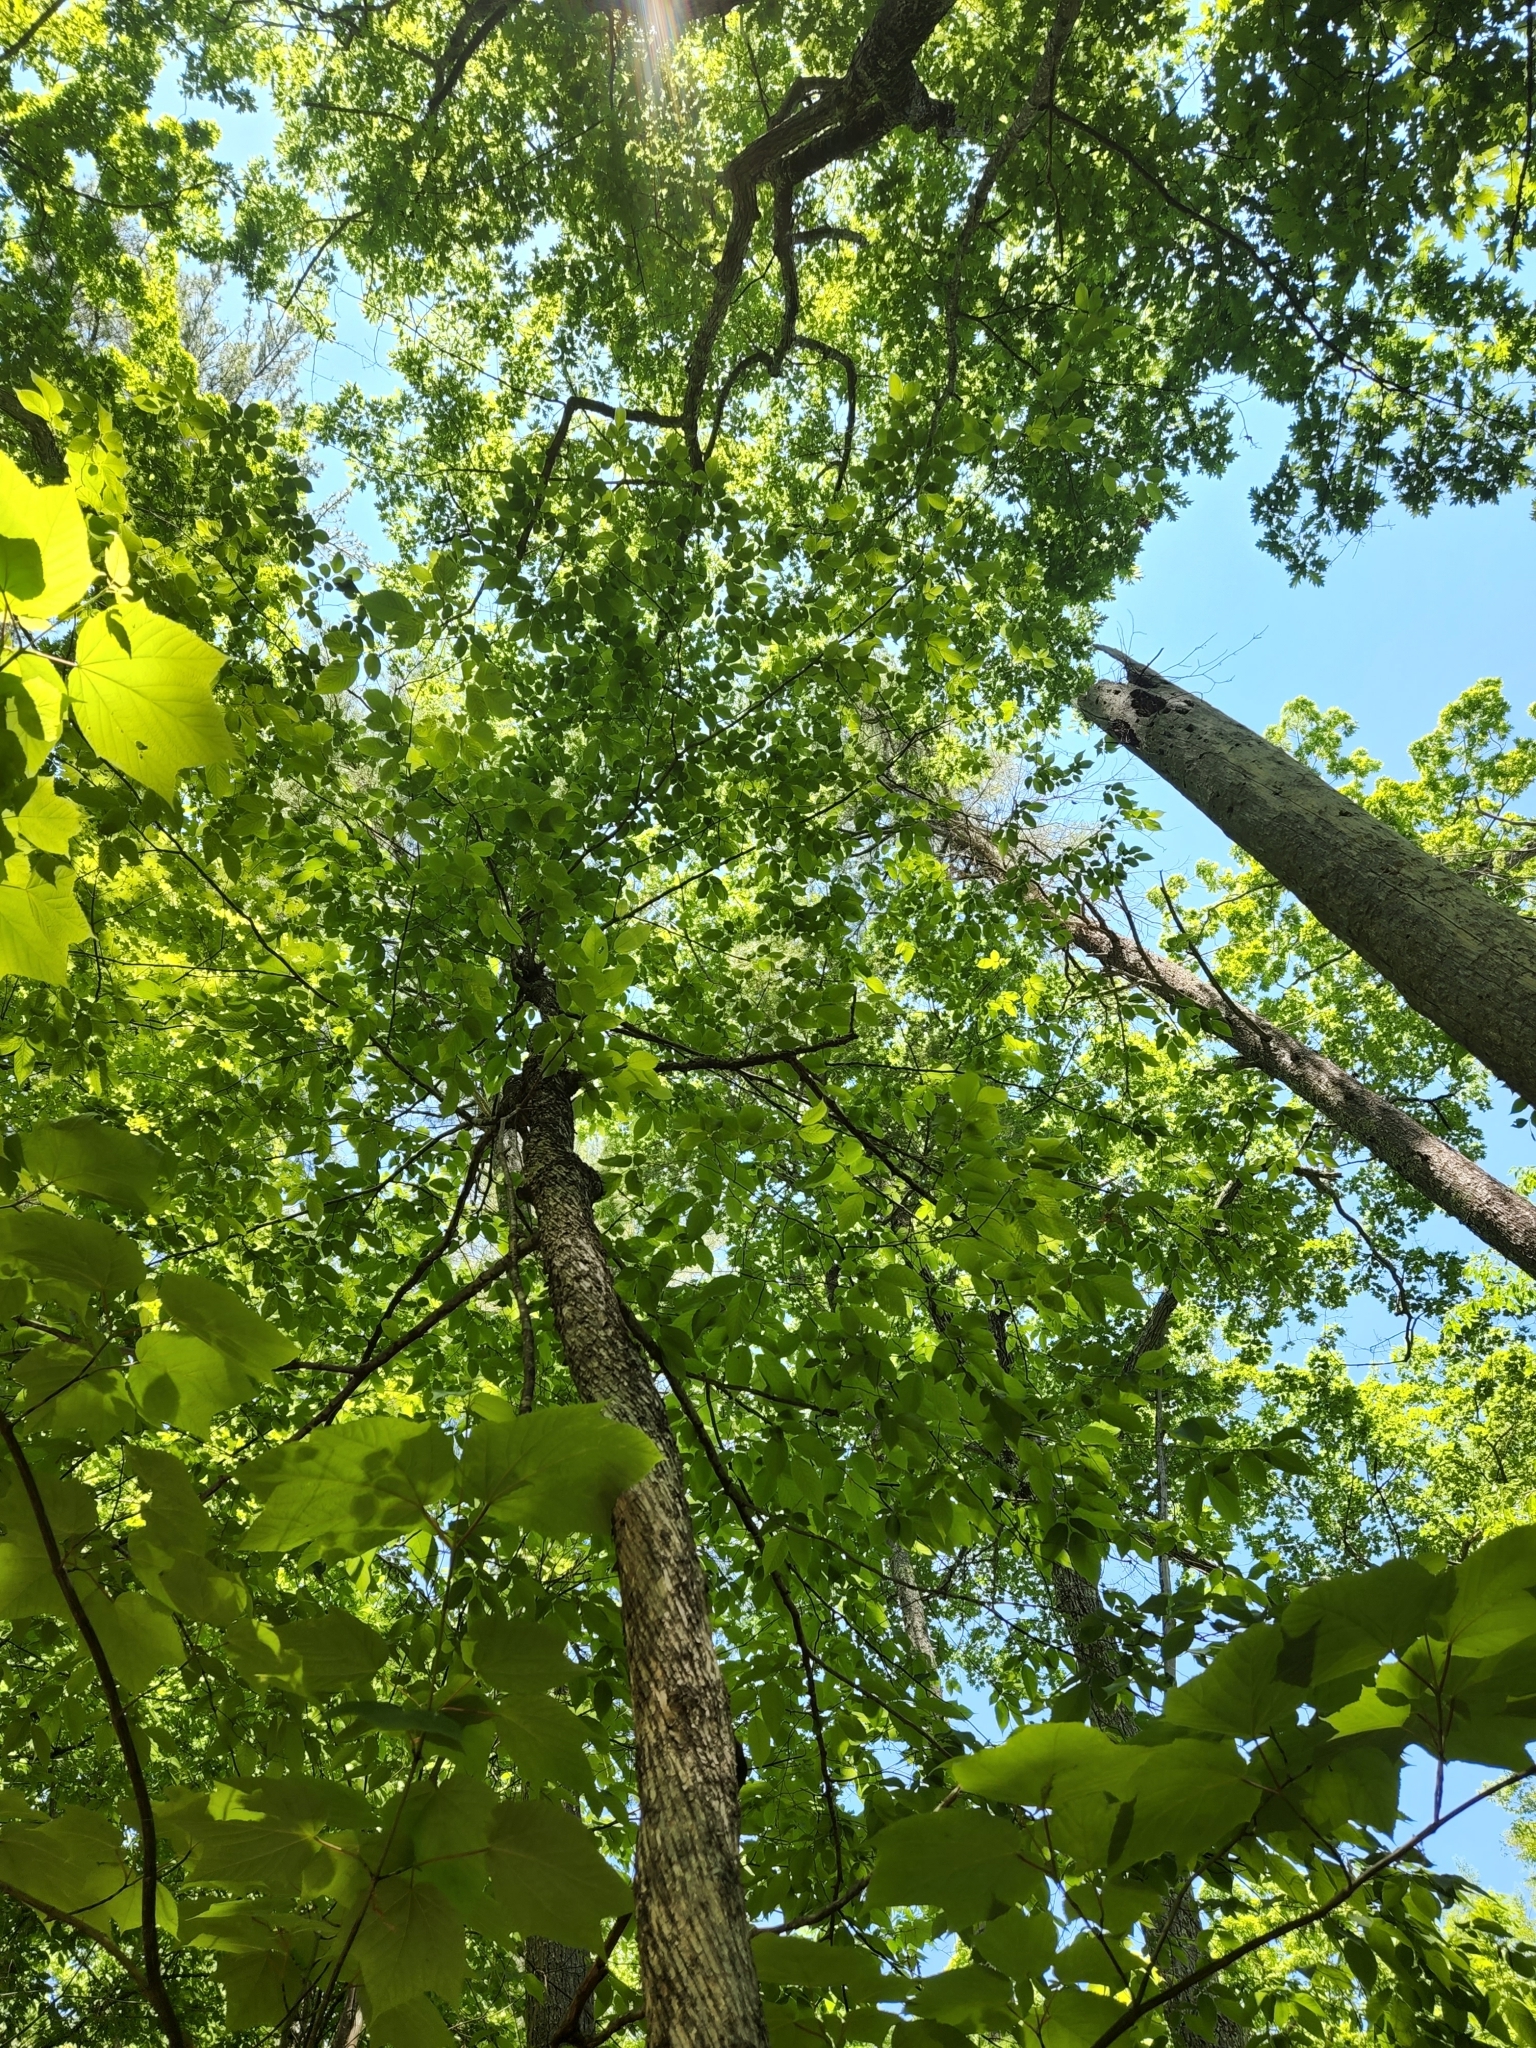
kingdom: Plantae
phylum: Tracheophyta
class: Magnoliopsida
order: Fagales
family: Betulaceae
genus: Ostrya
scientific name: Ostrya virginiana
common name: Ironwood
